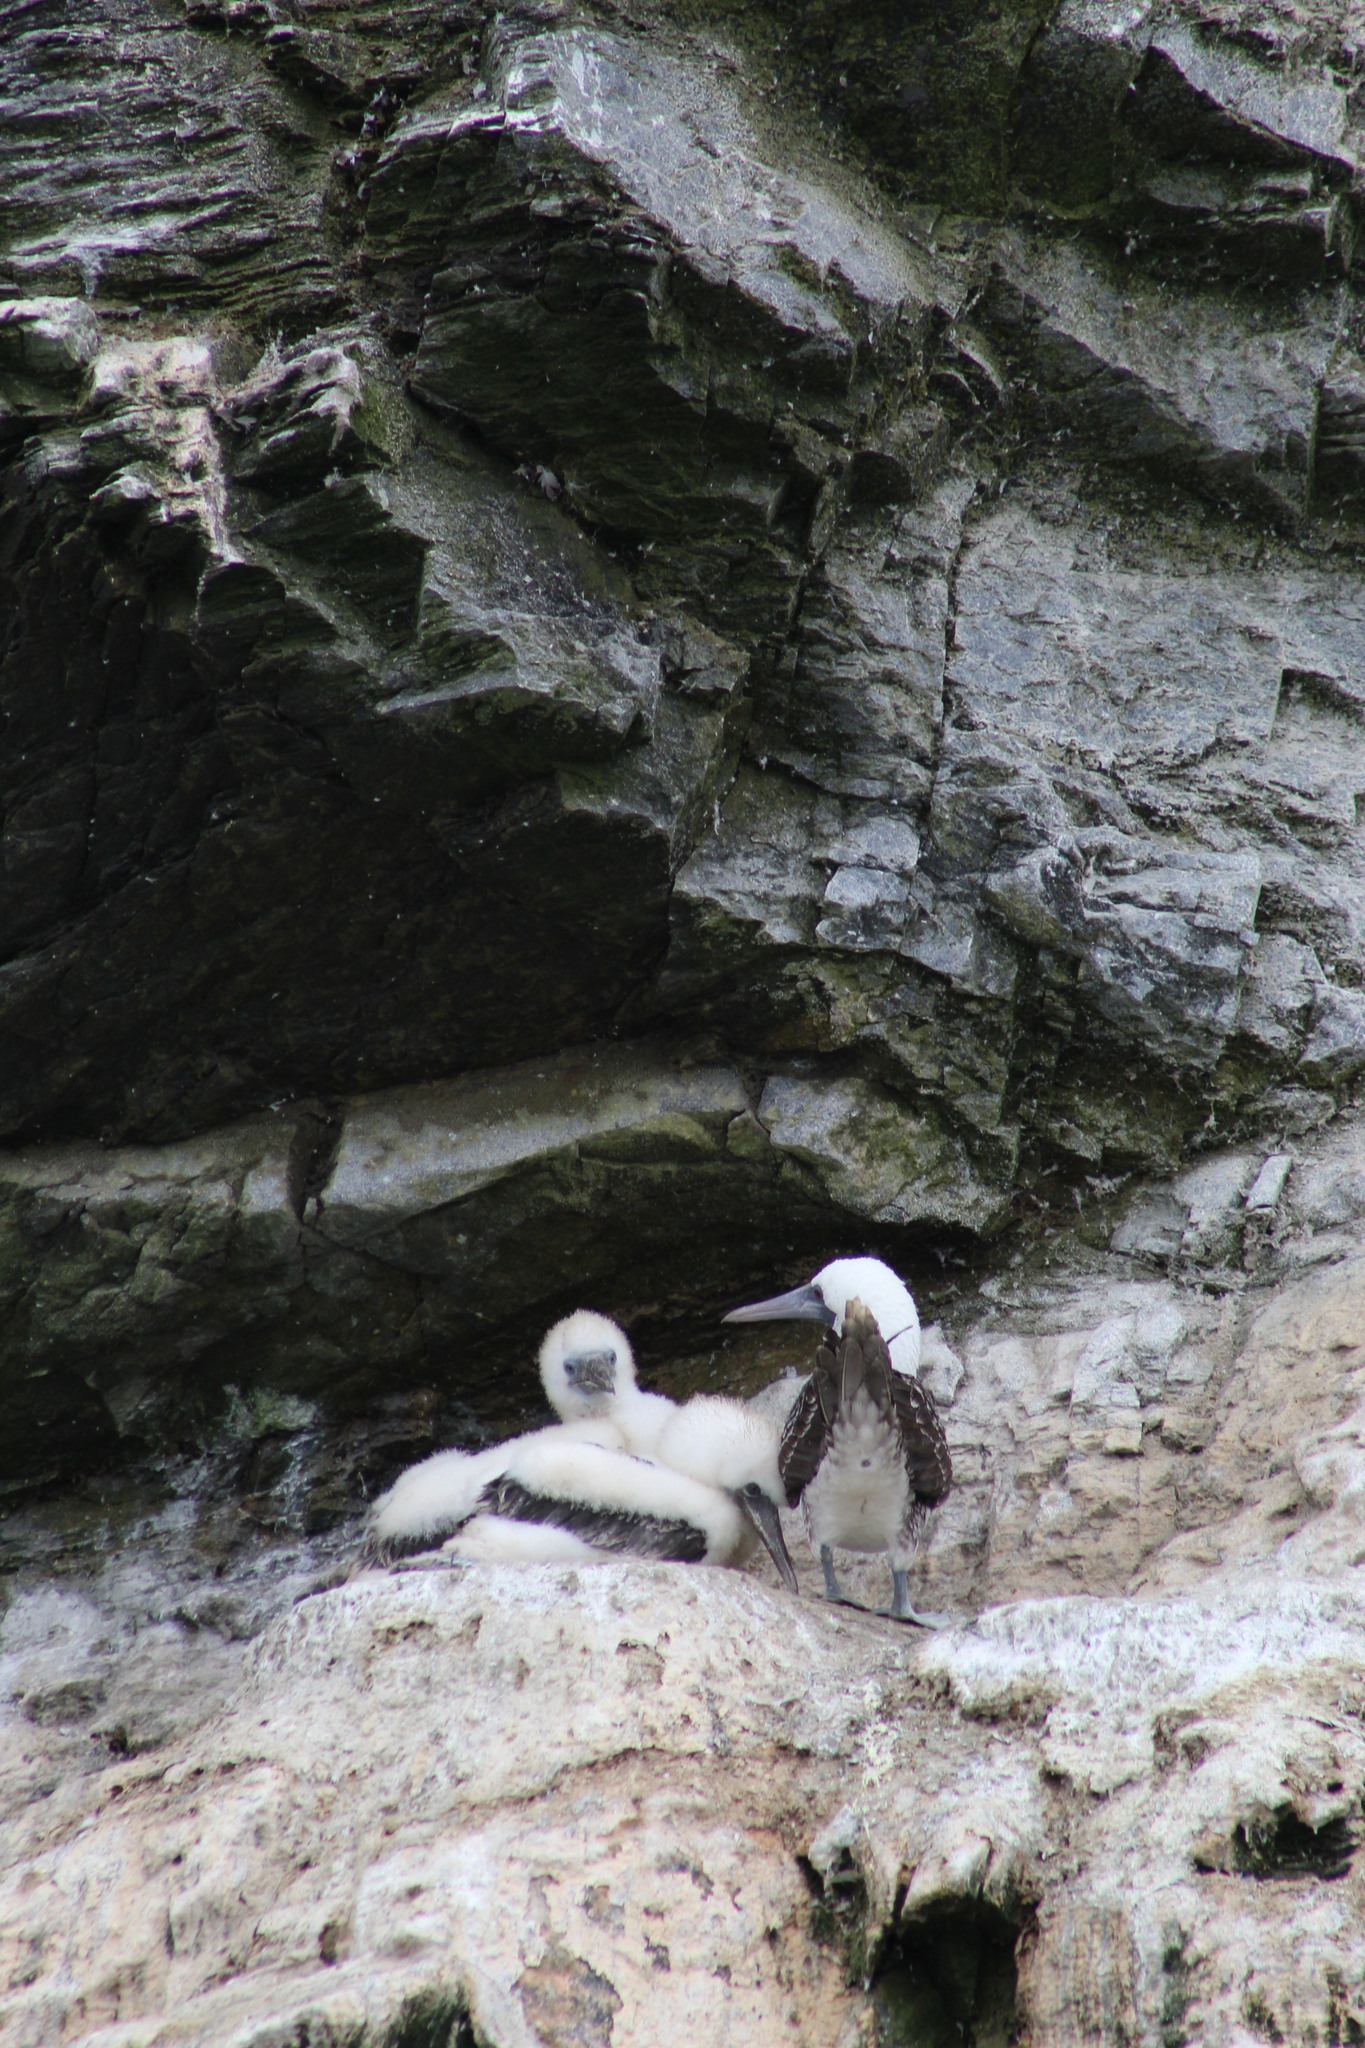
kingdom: Animalia
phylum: Chordata
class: Aves
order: Suliformes
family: Sulidae
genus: Sula
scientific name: Sula variegata
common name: Peruvian booby
